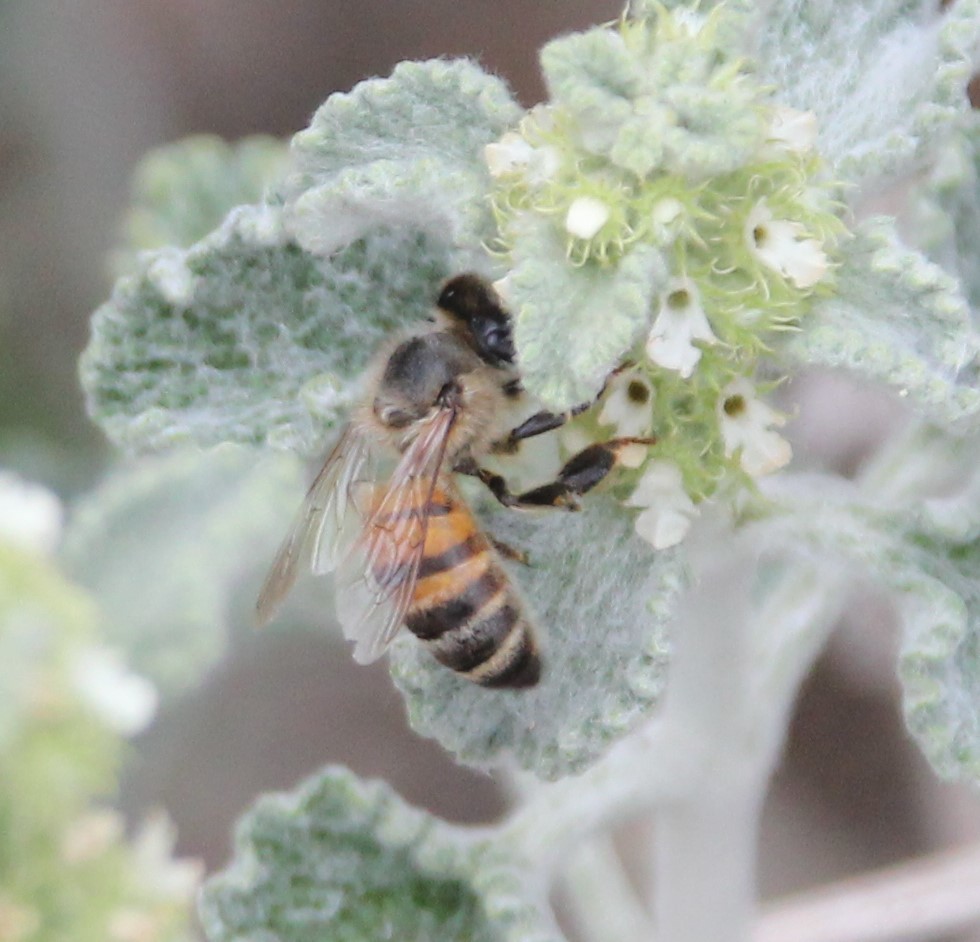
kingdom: Animalia
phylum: Arthropoda
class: Insecta
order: Hymenoptera
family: Apidae
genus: Apis
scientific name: Apis mellifera
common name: Honey bee
